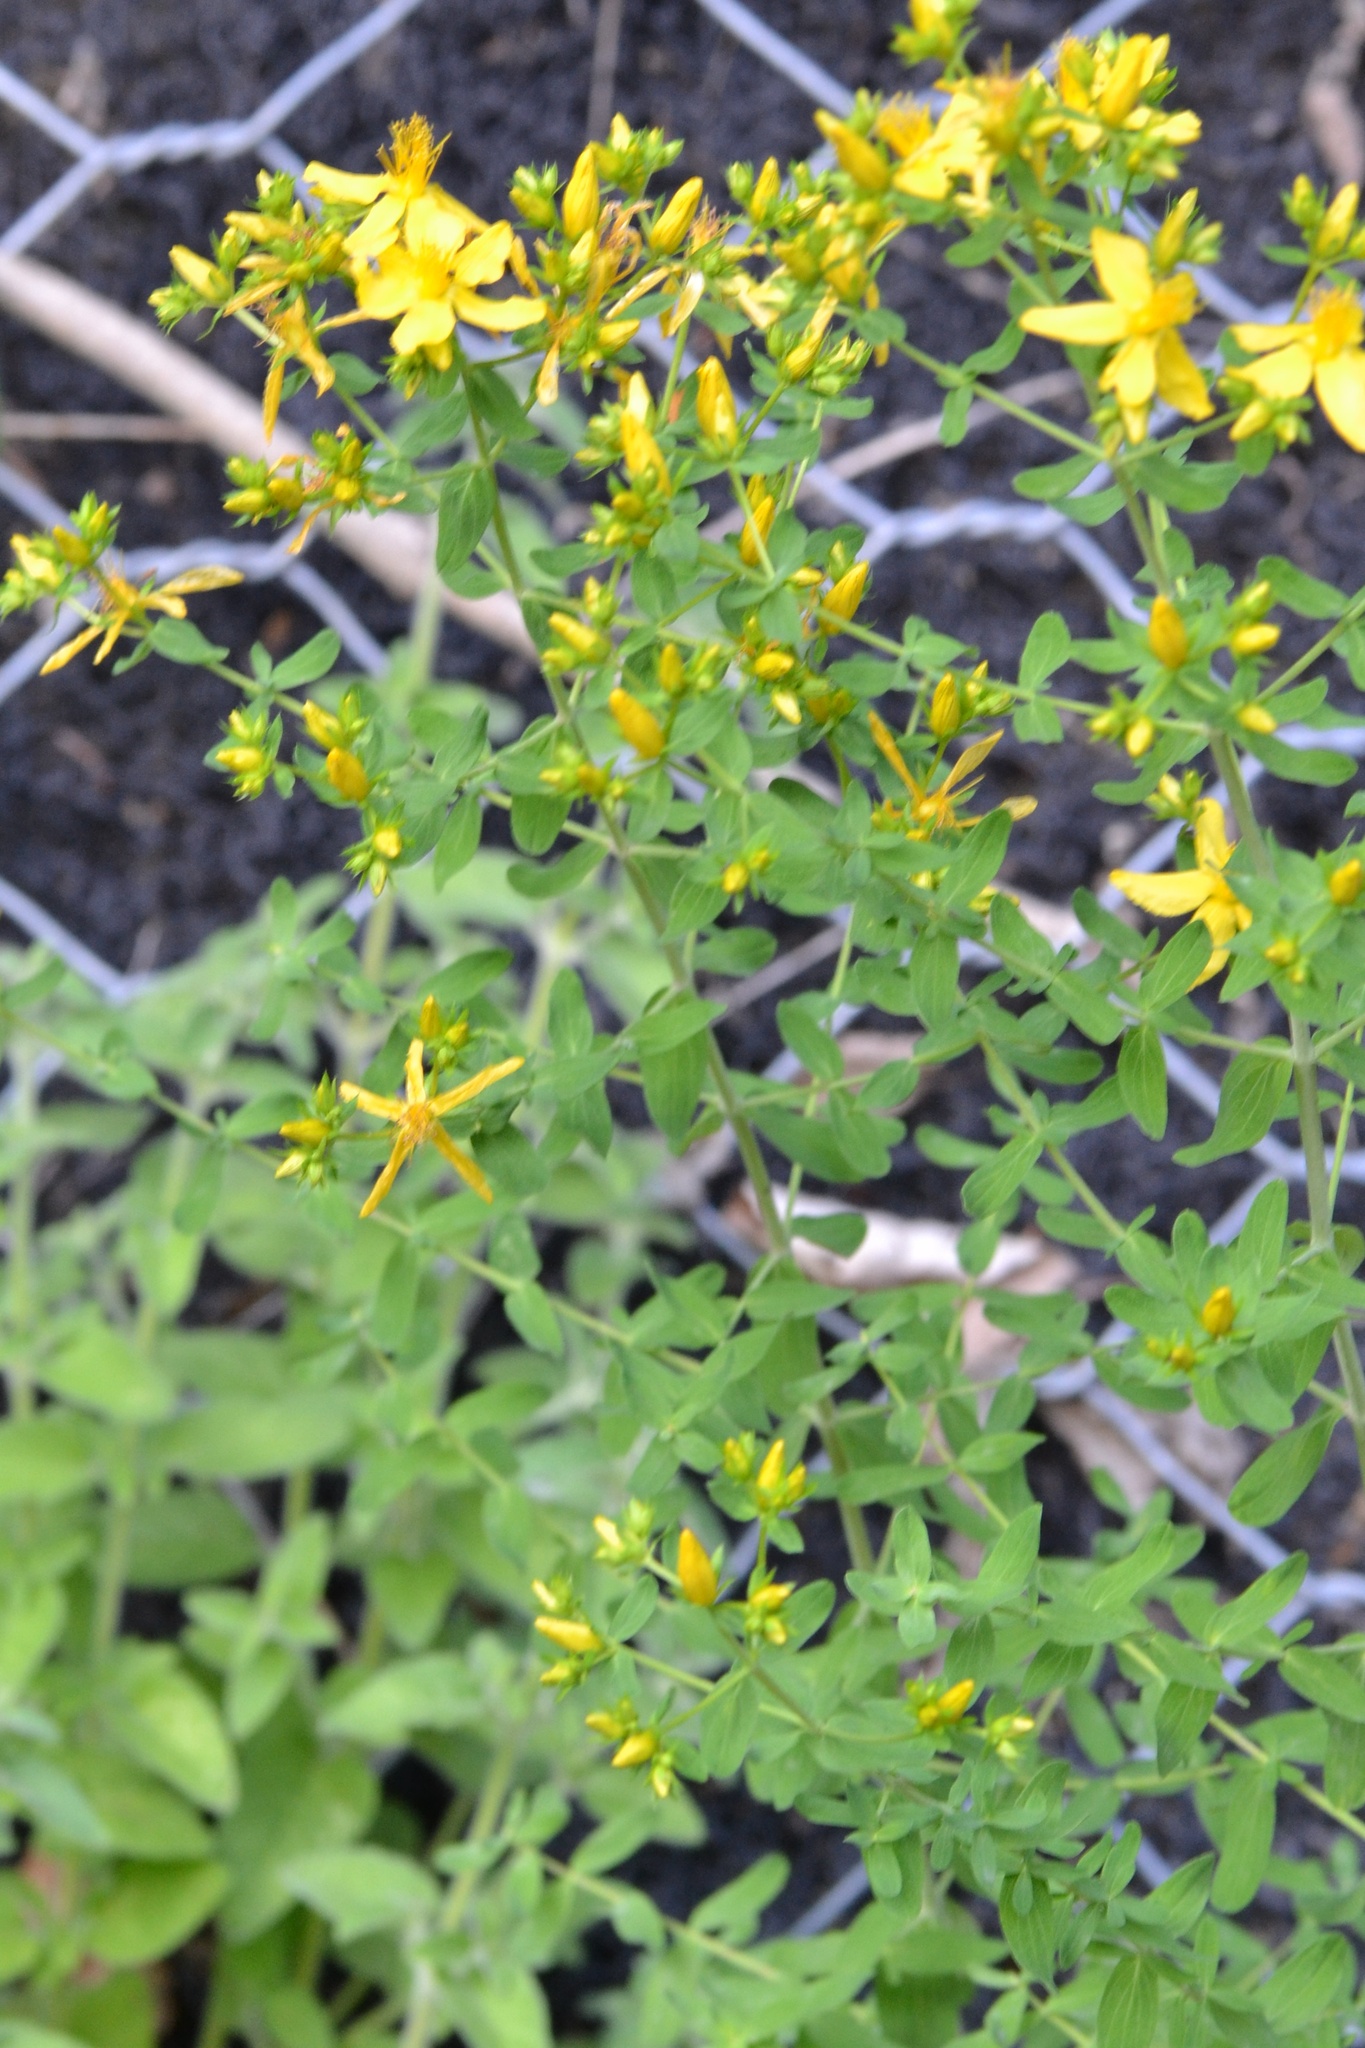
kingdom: Plantae
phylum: Tracheophyta
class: Magnoliopsida
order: Malpighiales
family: Hypericaceae
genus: Hypericum
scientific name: Hypericum perforatum
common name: Common st. johnswort
